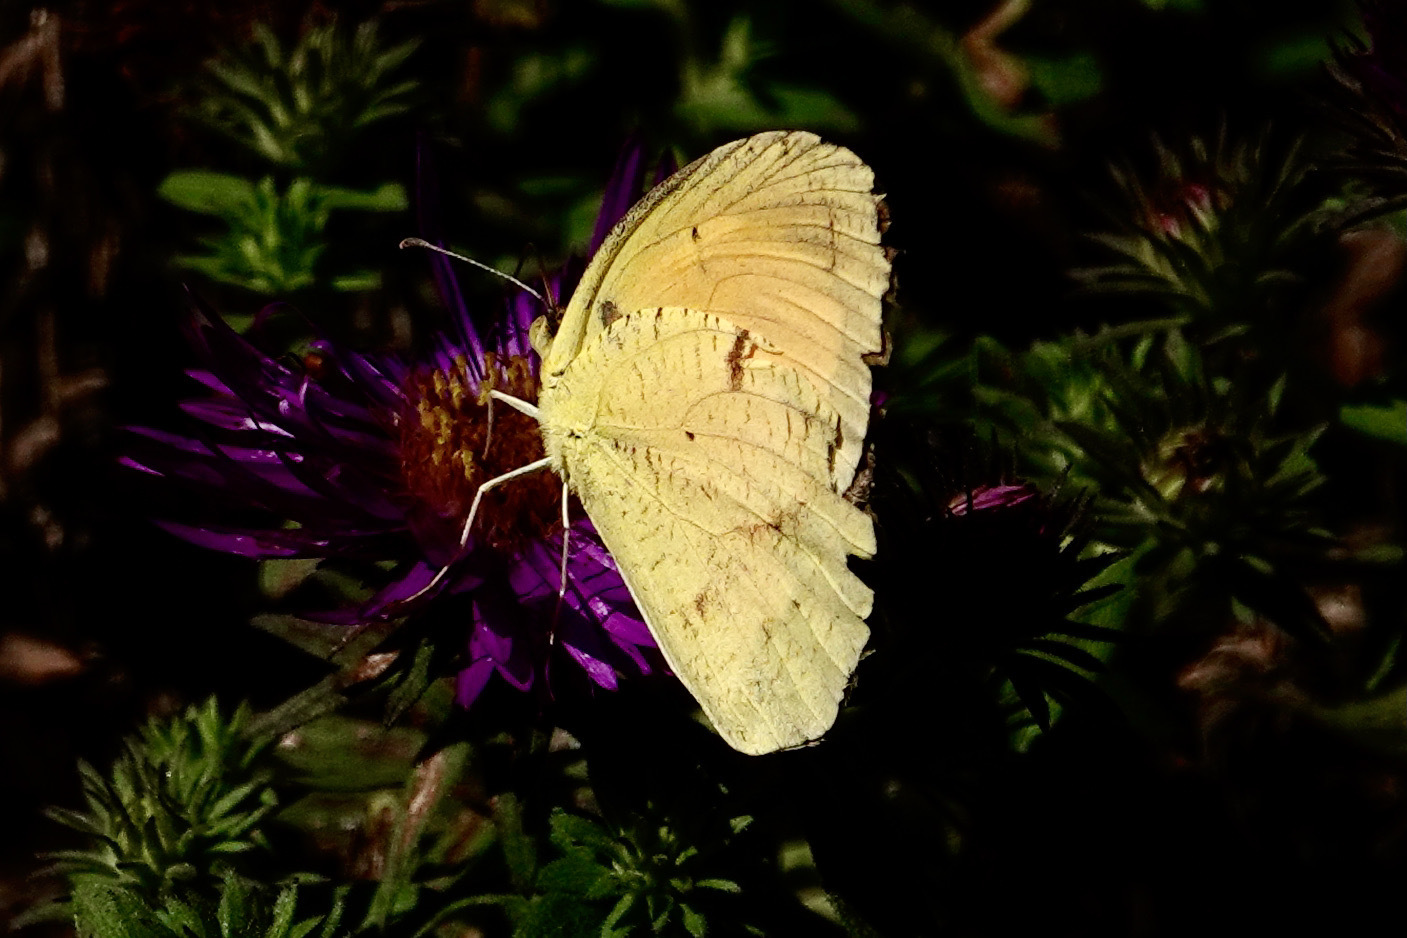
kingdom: Animalia
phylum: Arthropoda
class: Insecta
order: Lepidoptera
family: Pieridae
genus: Abaeis
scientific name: Abaeis nicippe
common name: Sleepy orange
